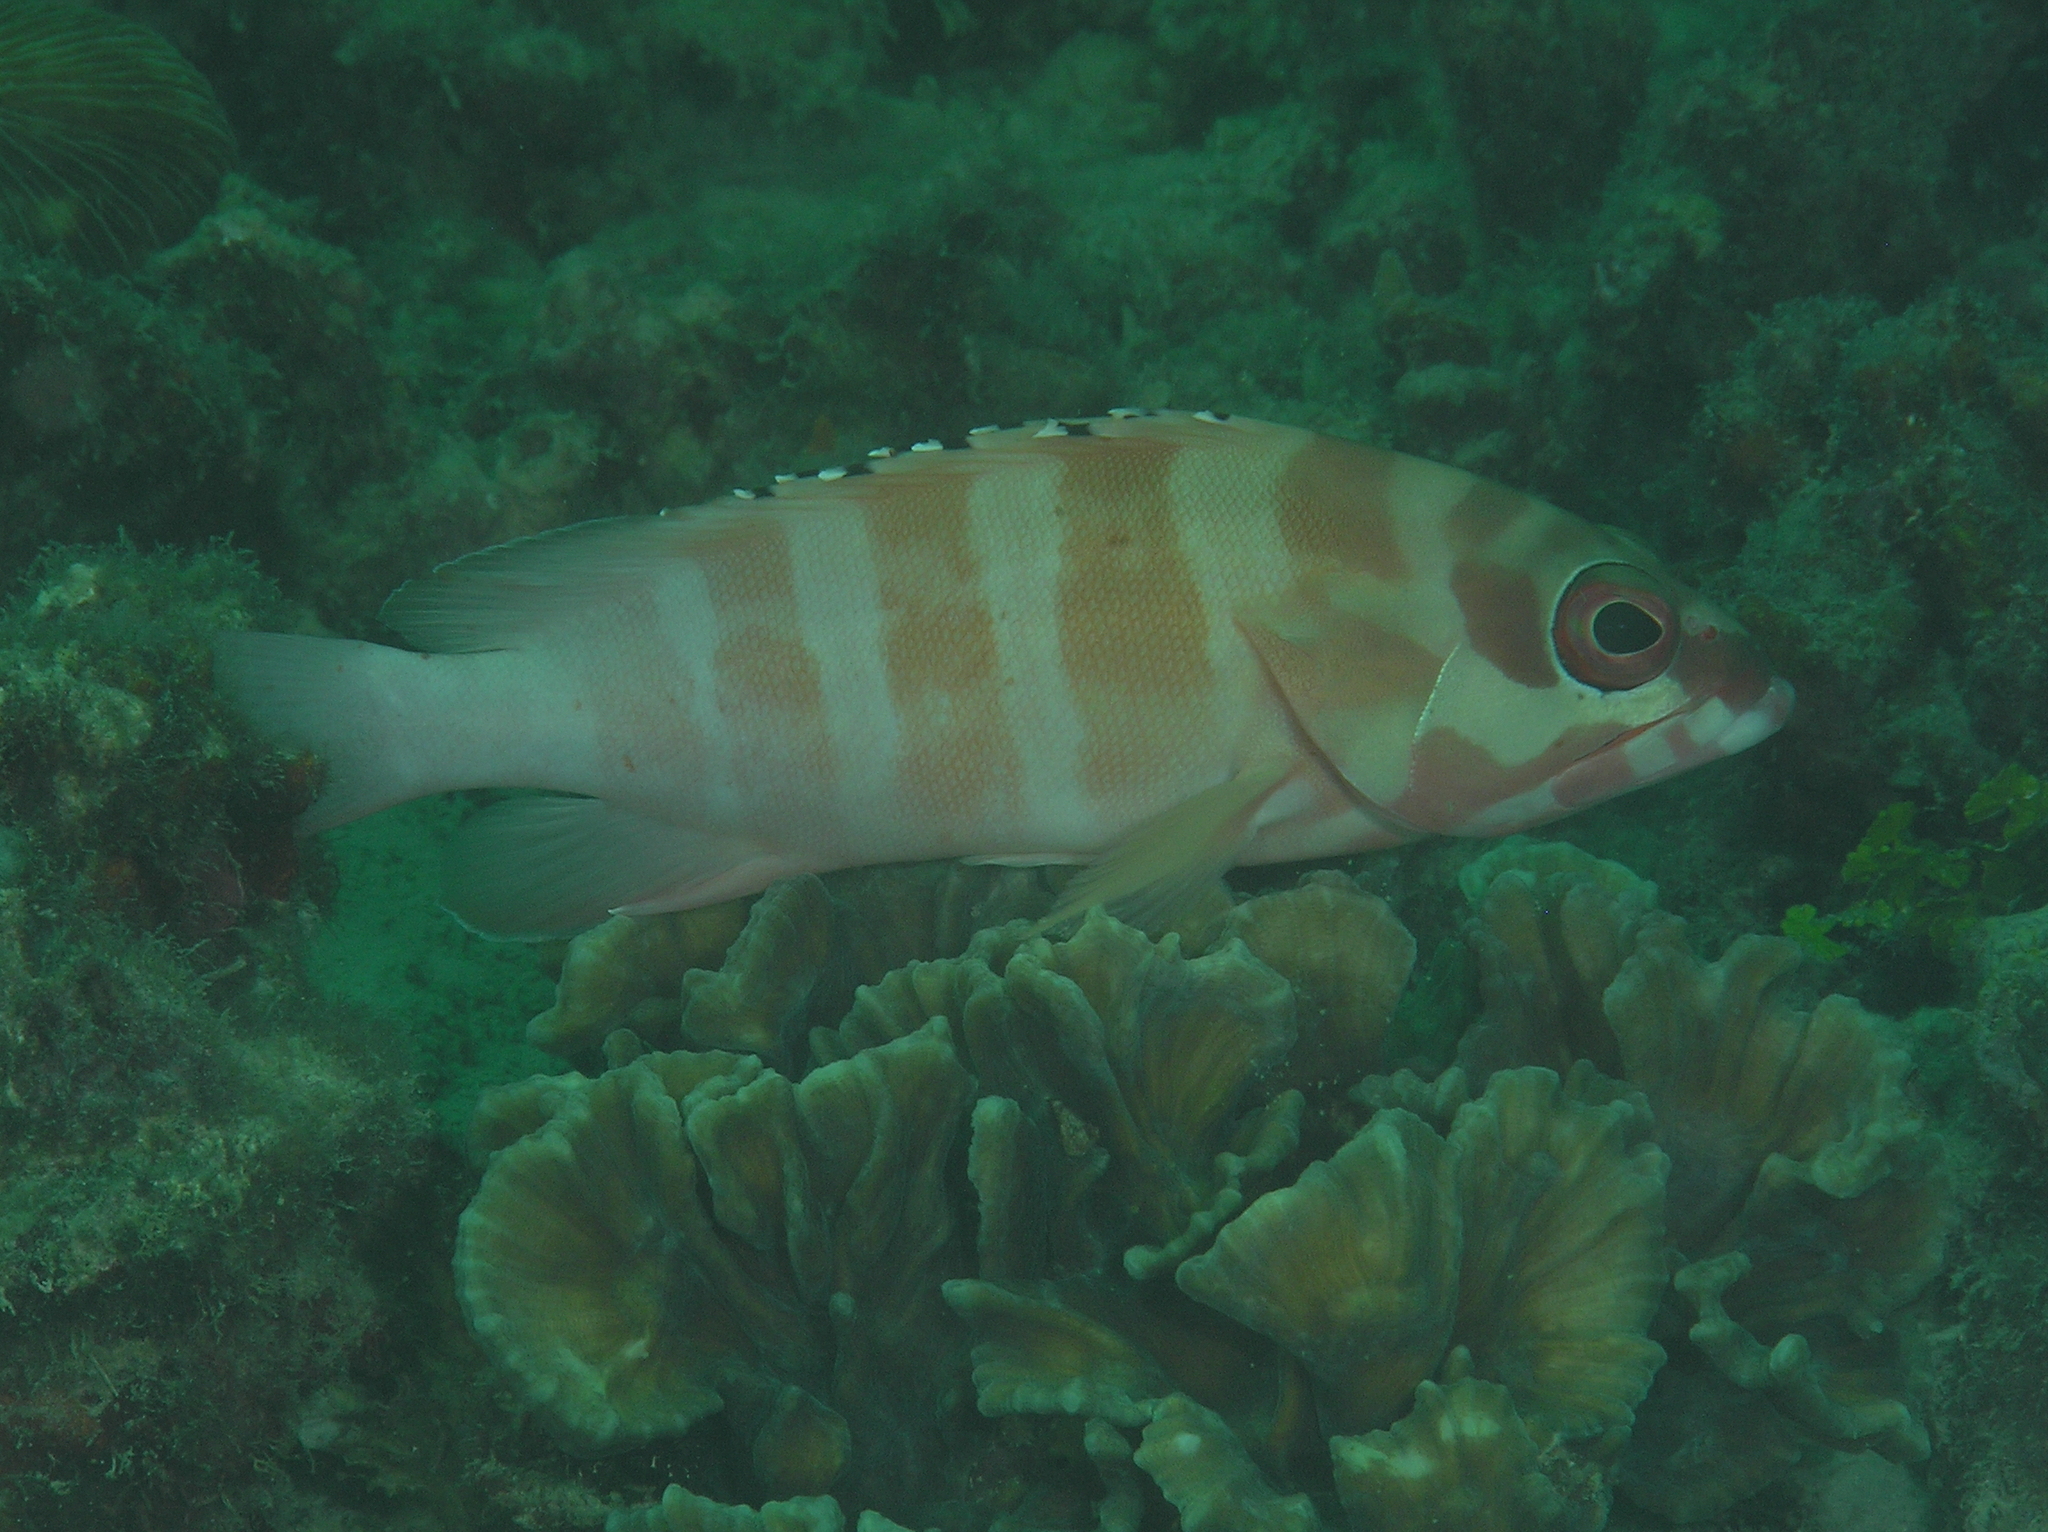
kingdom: Animalia
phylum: Chordata
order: Perciformes
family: Serranidae
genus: Epinephelus
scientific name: Epinephelus fasciatus
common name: Blacktip grouper
